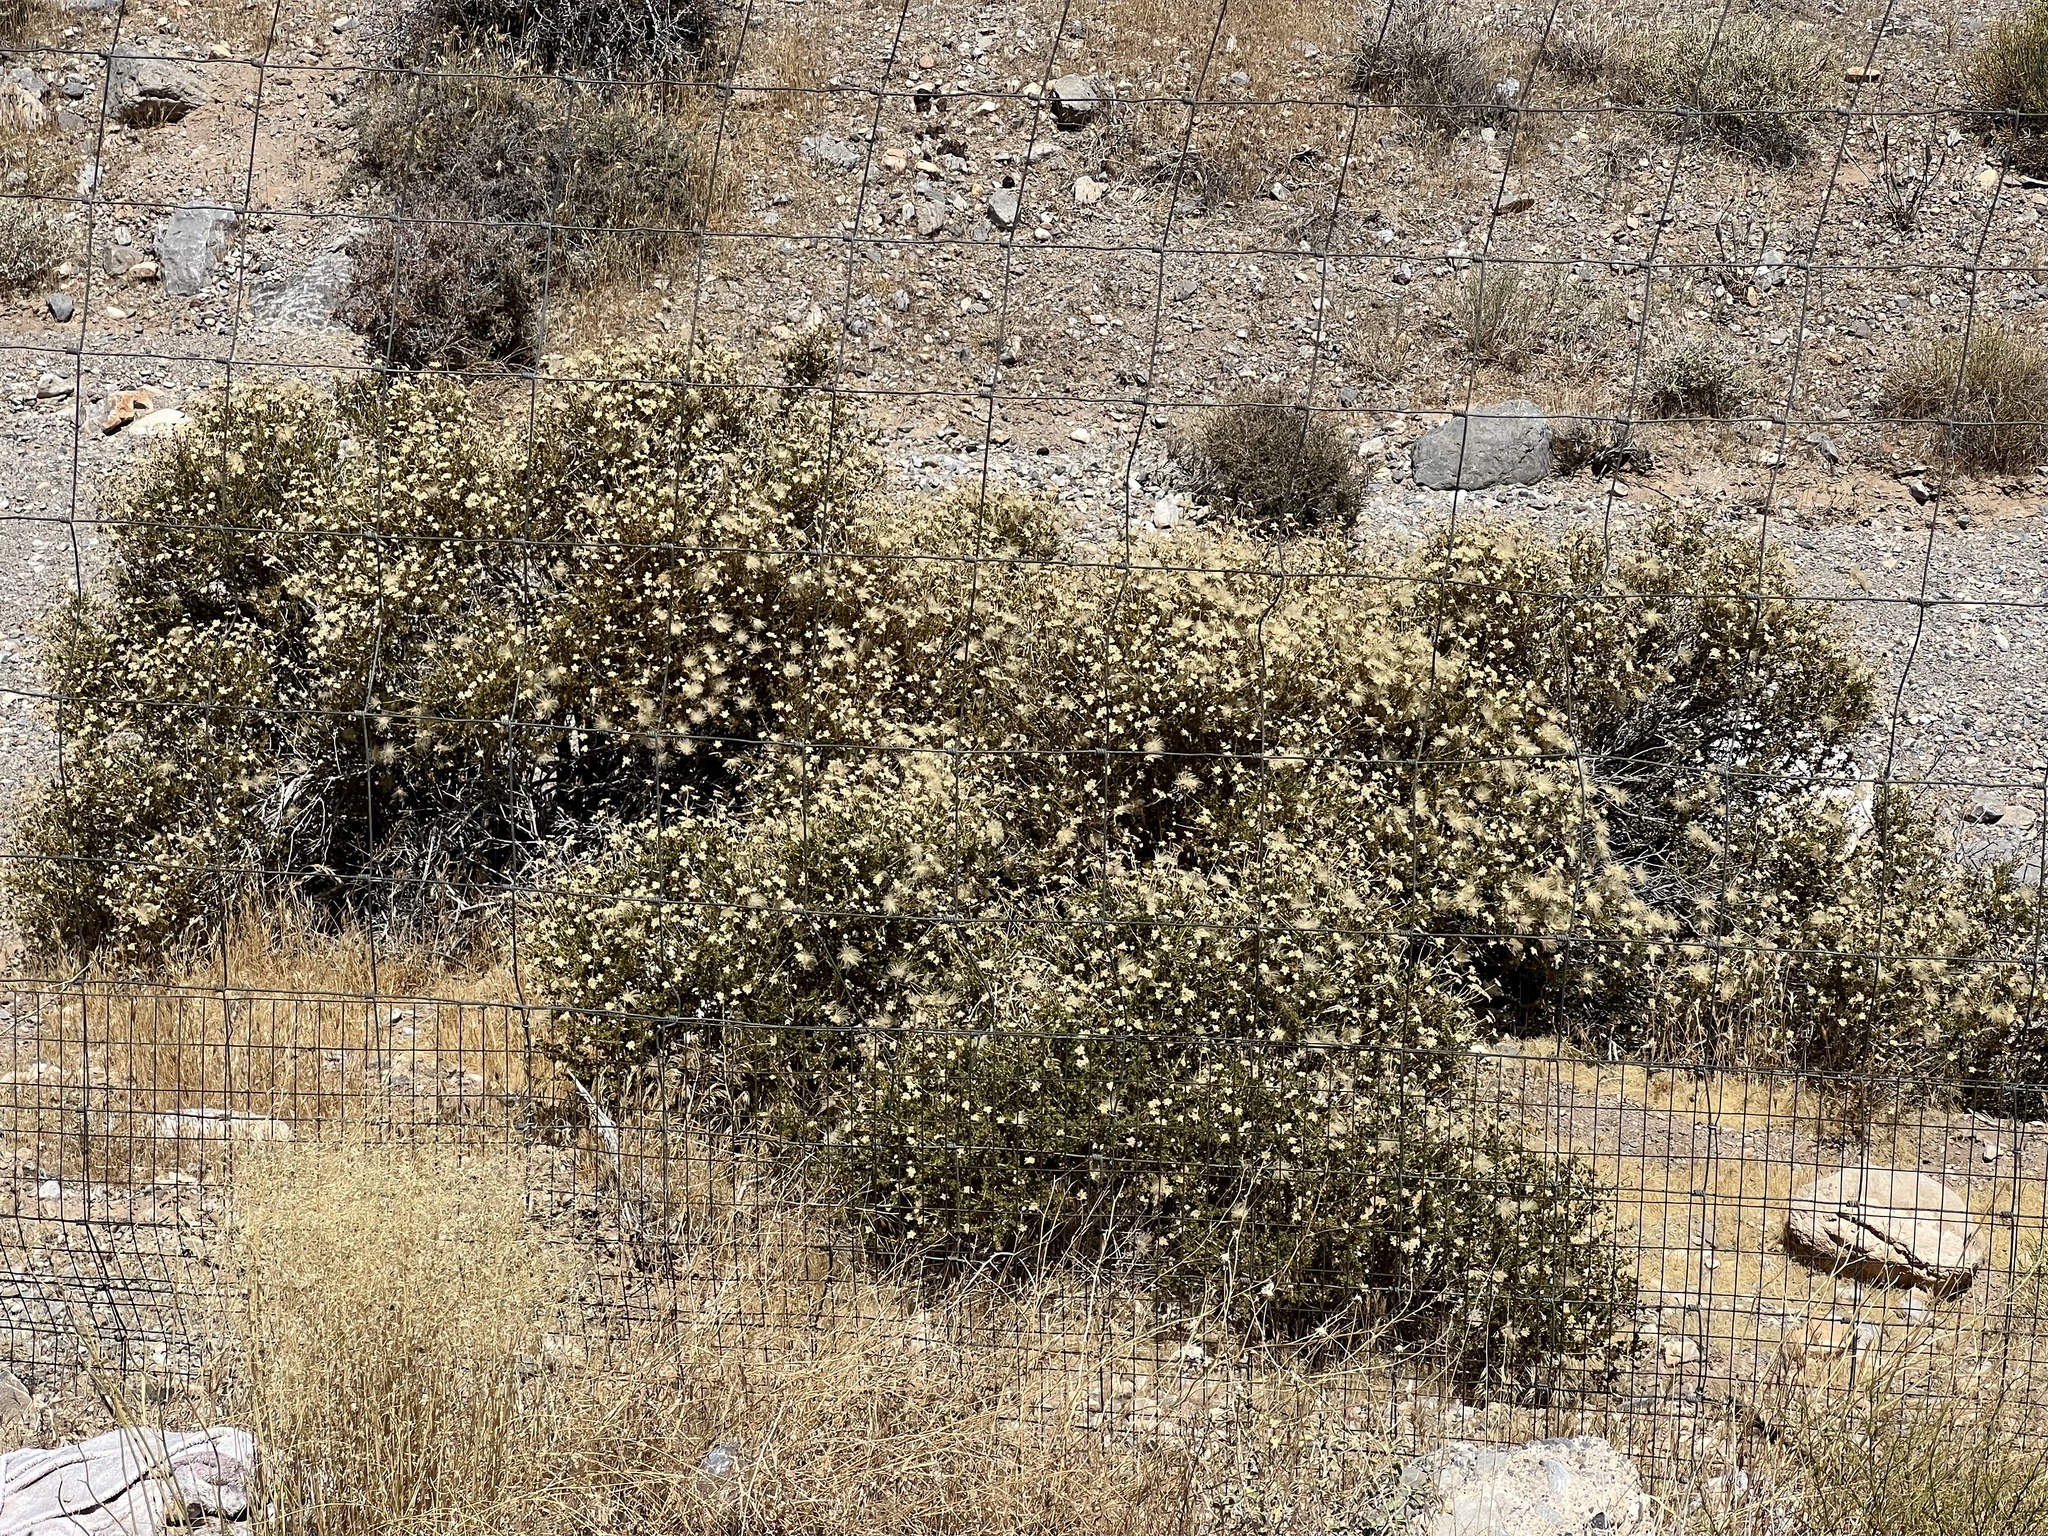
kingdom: Plantae
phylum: Tracheophyta
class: Magnoliopsida
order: Rosales
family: Rosaceae
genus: Fallugia
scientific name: Fallugia paradoxa
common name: Apache-plume
